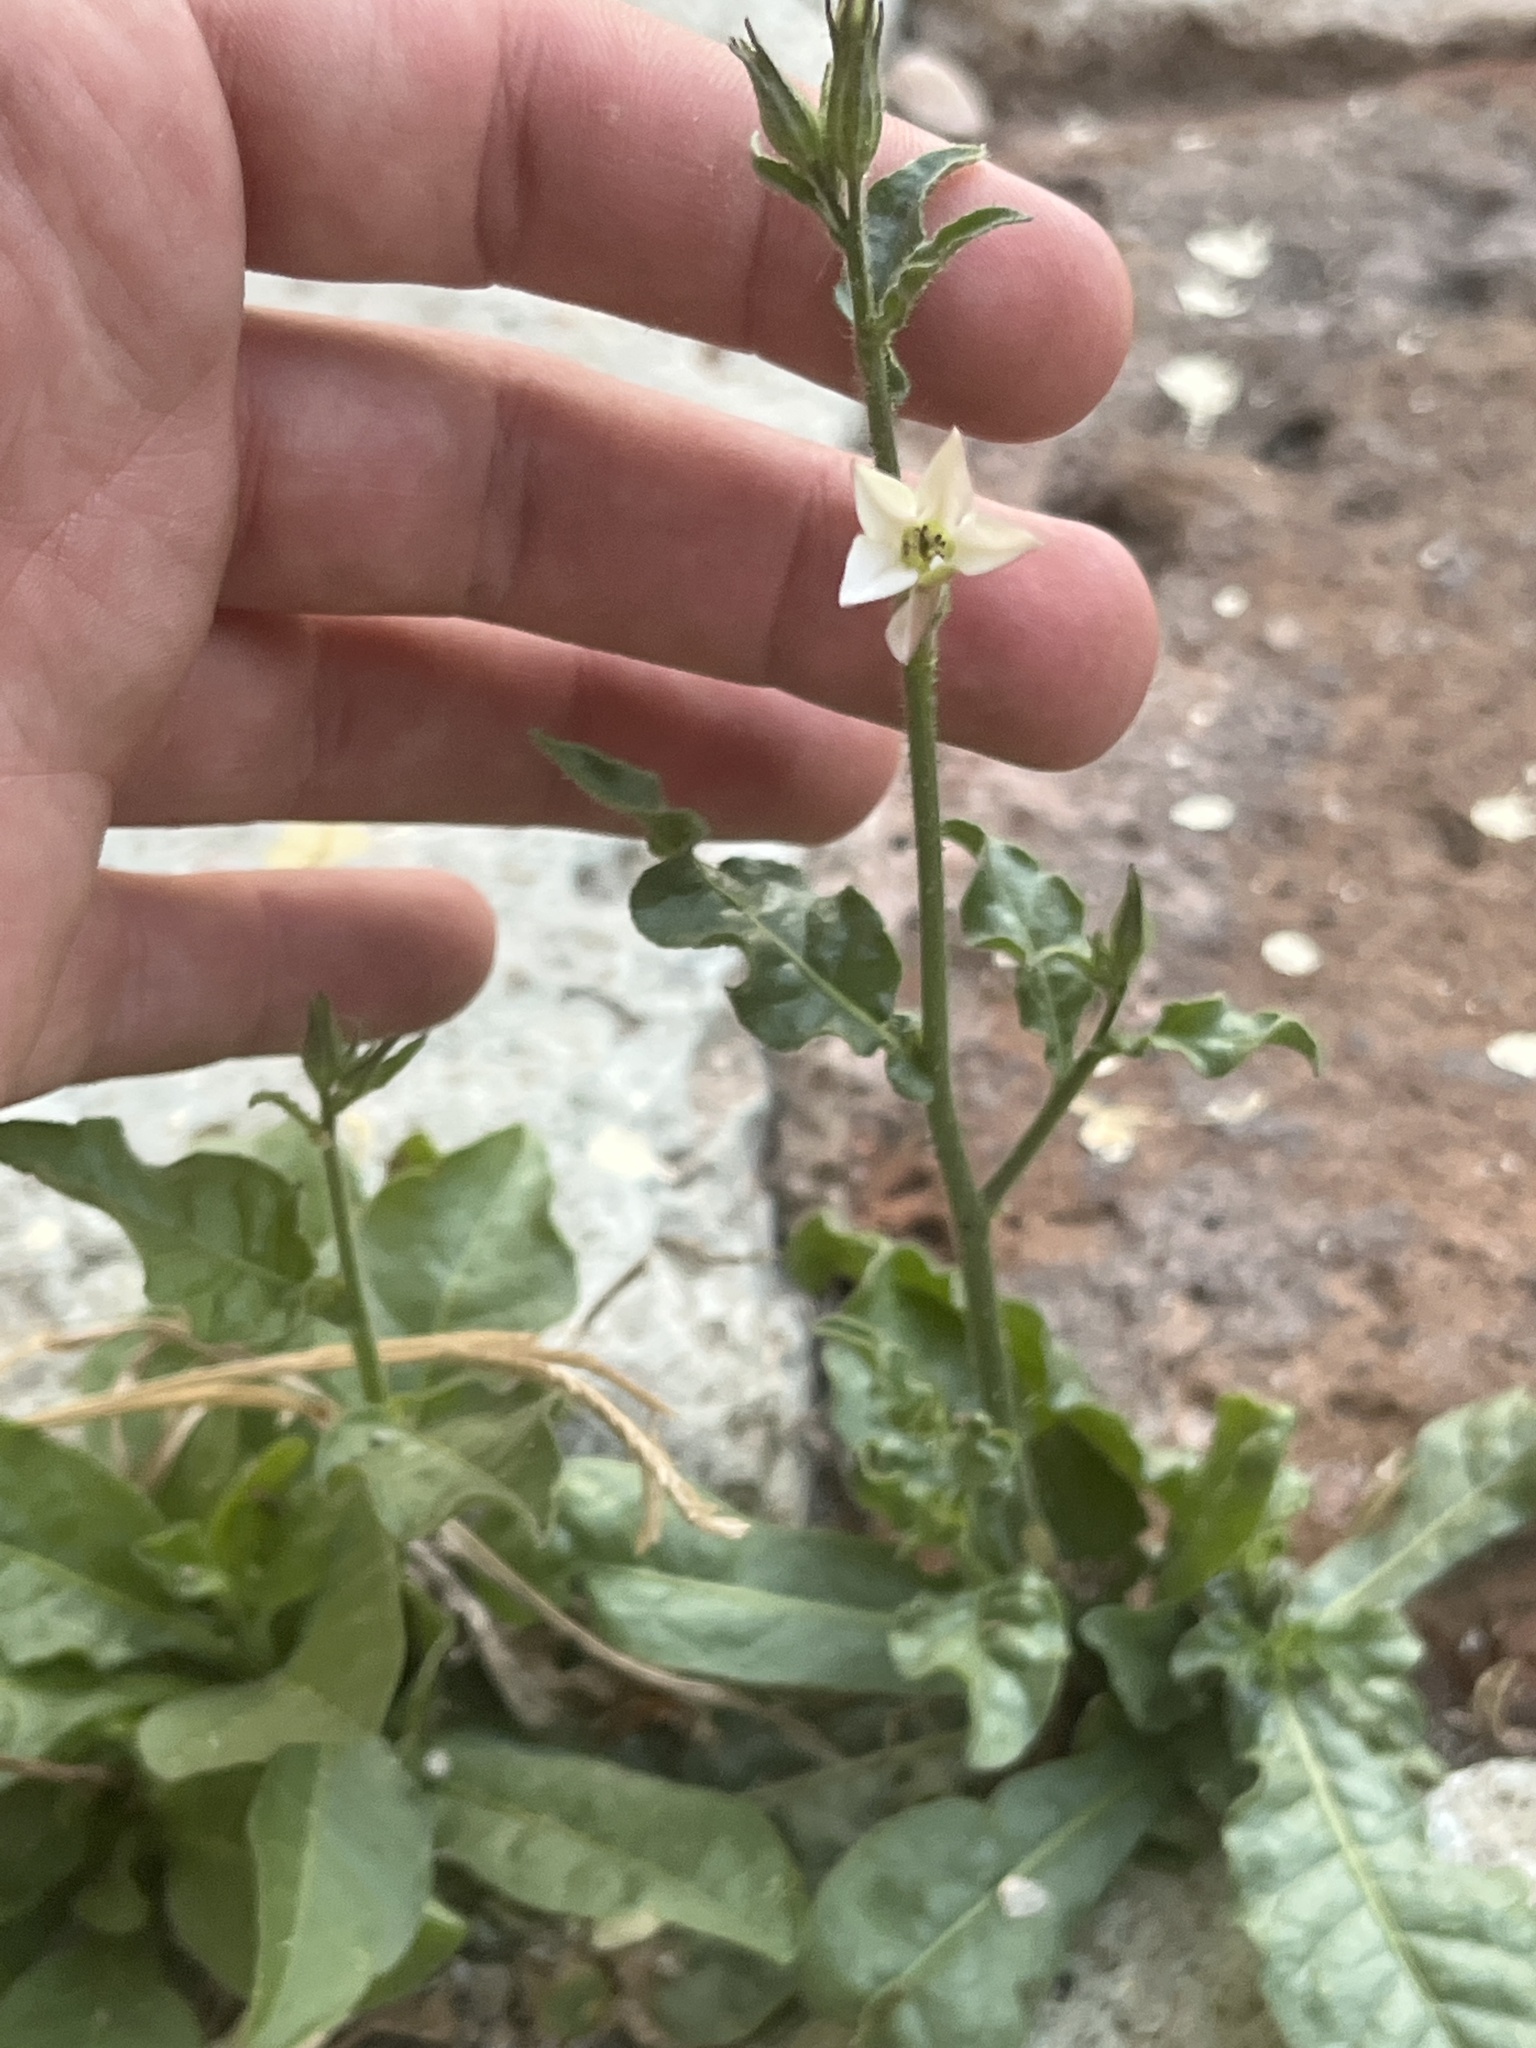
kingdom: Plantae
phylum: Tracheophyta
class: Magnoliopsida
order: Solanales
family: Solanaceae
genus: Nicotiana
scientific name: Nicotiana plumbaginifolia
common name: Tex-mex tobacco
